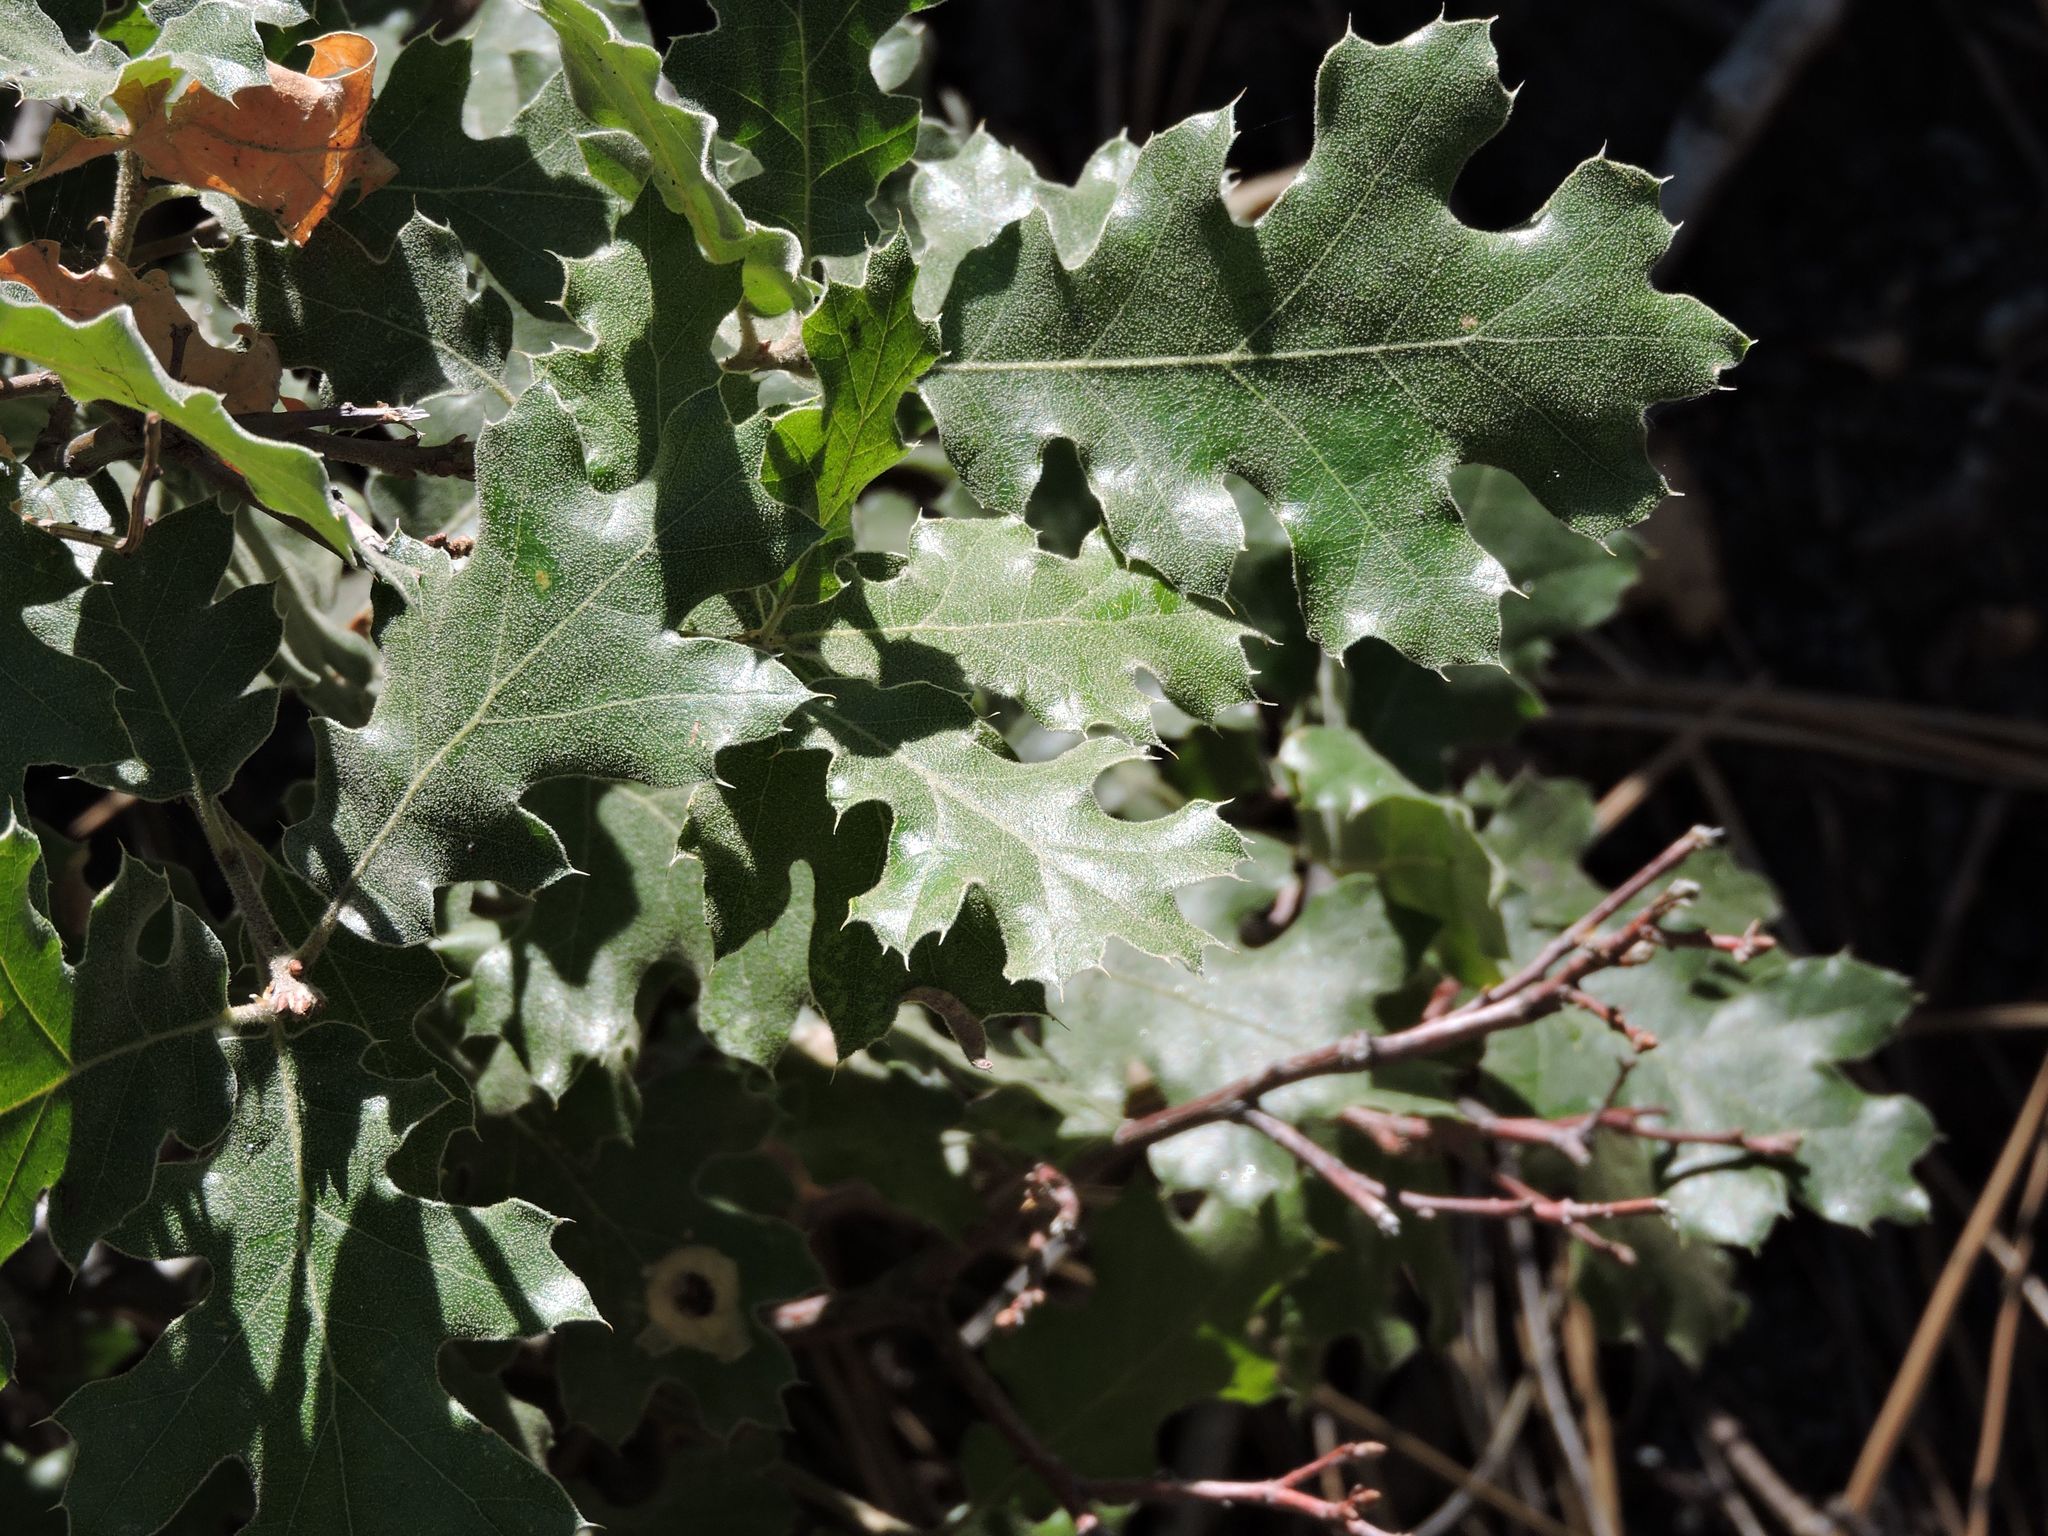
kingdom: Plantae
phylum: Tracheophyta
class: Magnoliopsida
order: Fagales
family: Fagaceae
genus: Quercus
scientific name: Quercus kelloggii
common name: California black oak
